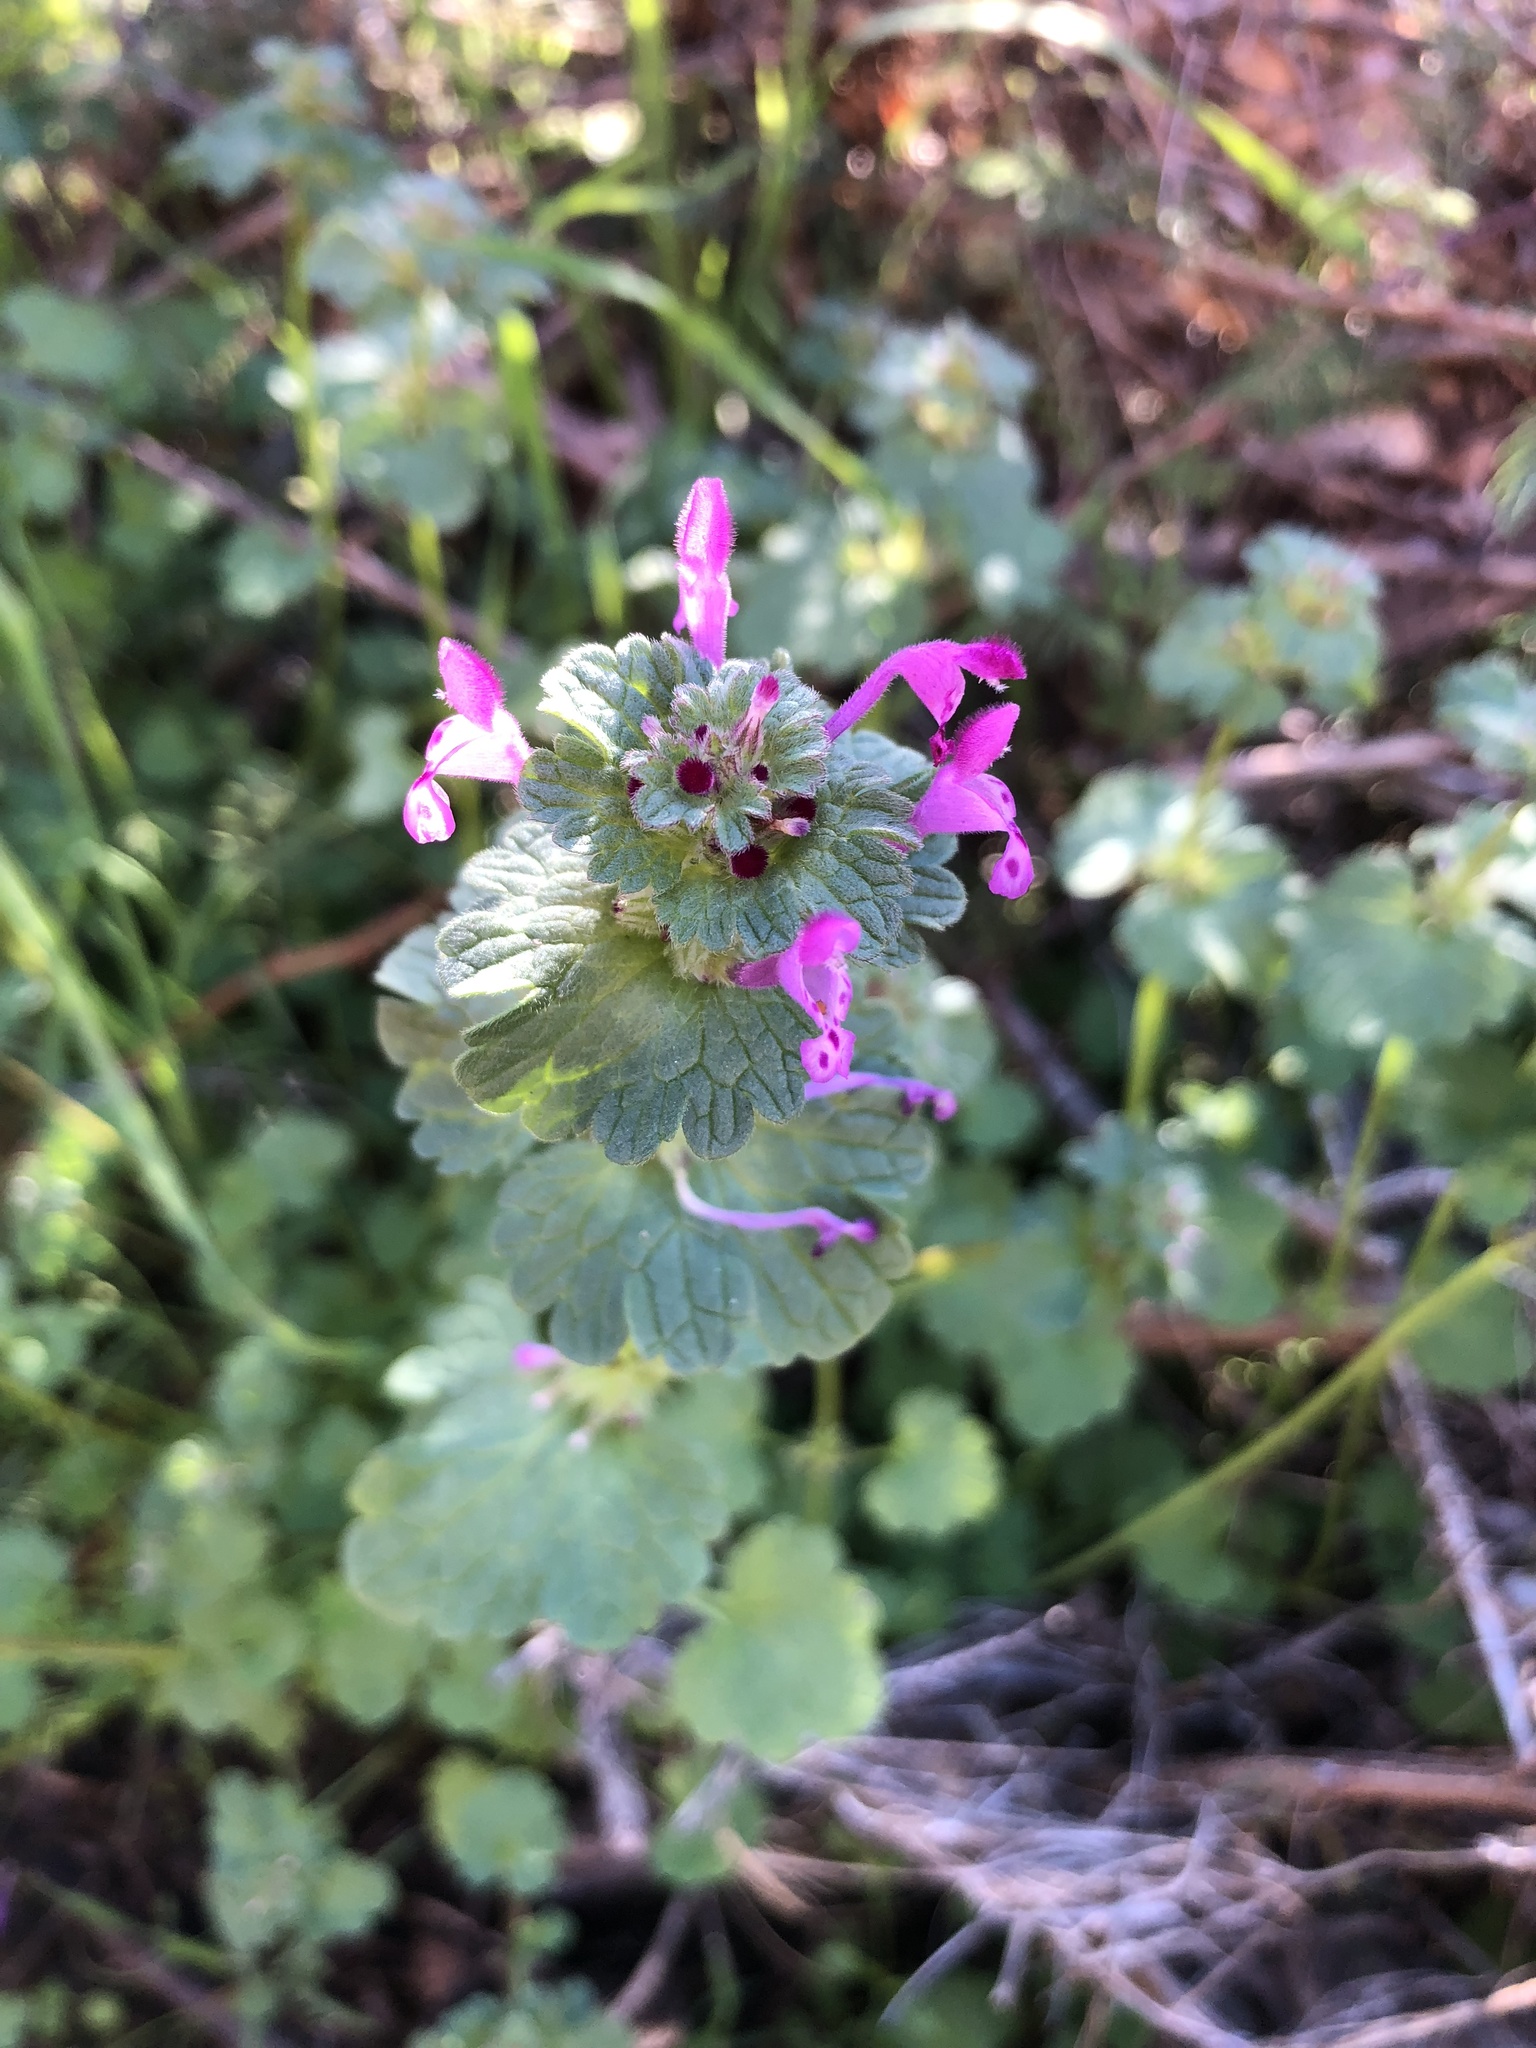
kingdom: Plantae
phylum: Tracheophyta
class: Magnoliopsida
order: Lamiales
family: Lamiaceae
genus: Lamium
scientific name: Lamium amplexicaule
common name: Henbit dead-nettle
